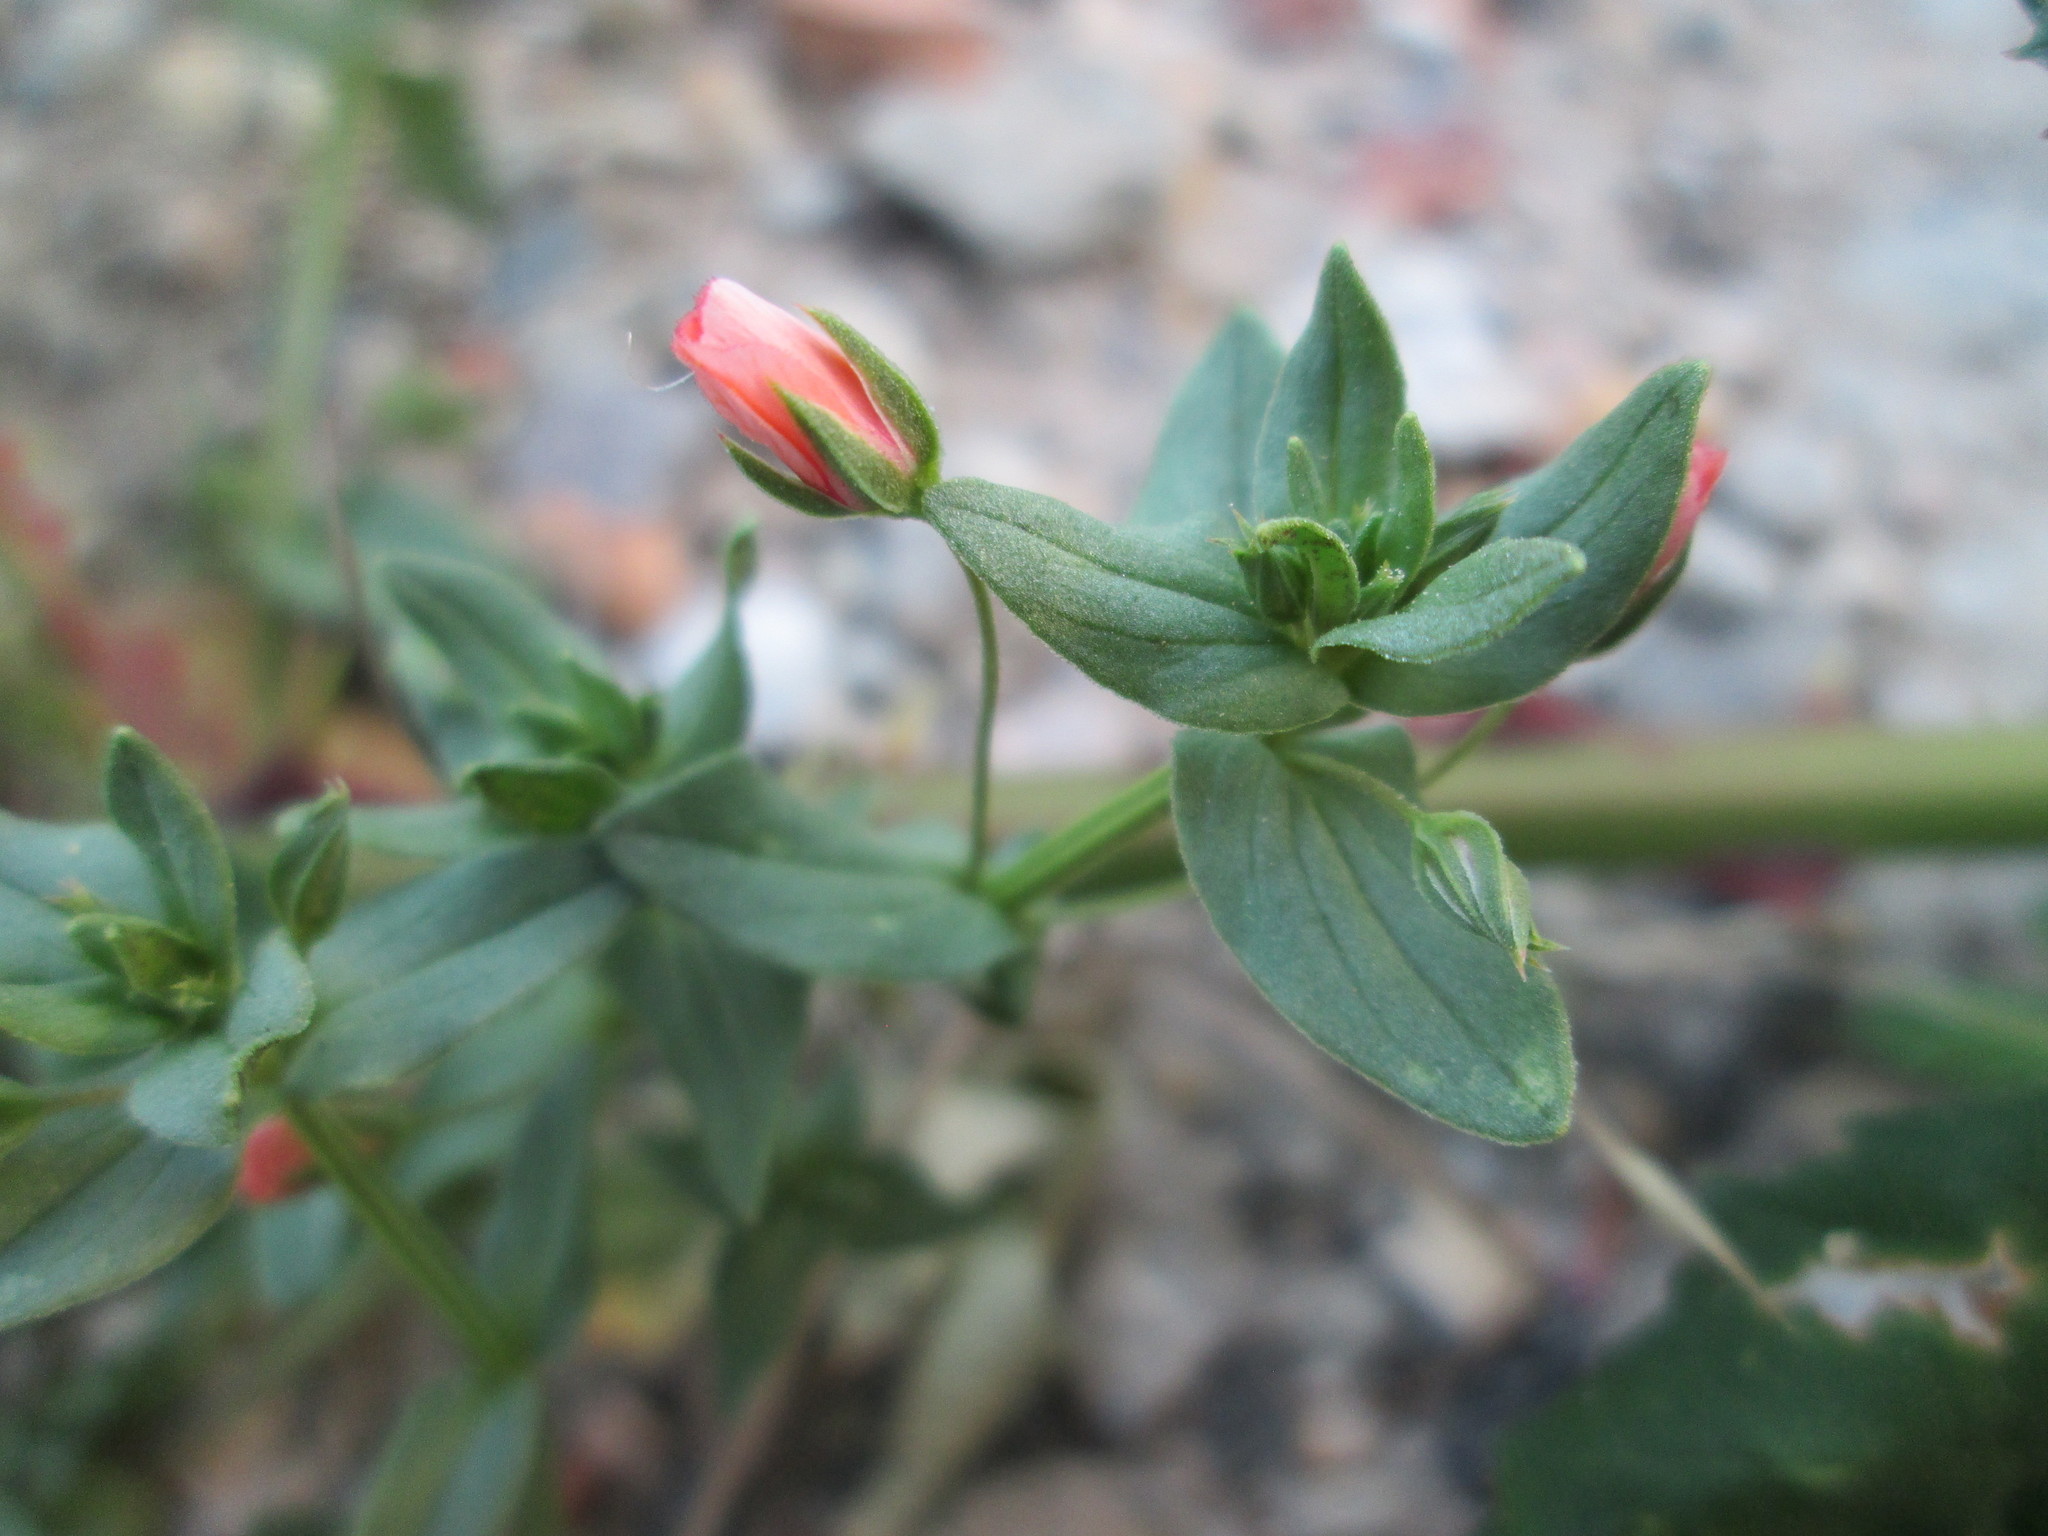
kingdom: Plantae
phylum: Tracheophyta
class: Magnoliopsida
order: Ericales
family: Primulaceae
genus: Lysimachia
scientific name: Lysimachia arvensis
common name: Scarlet pimpernel
